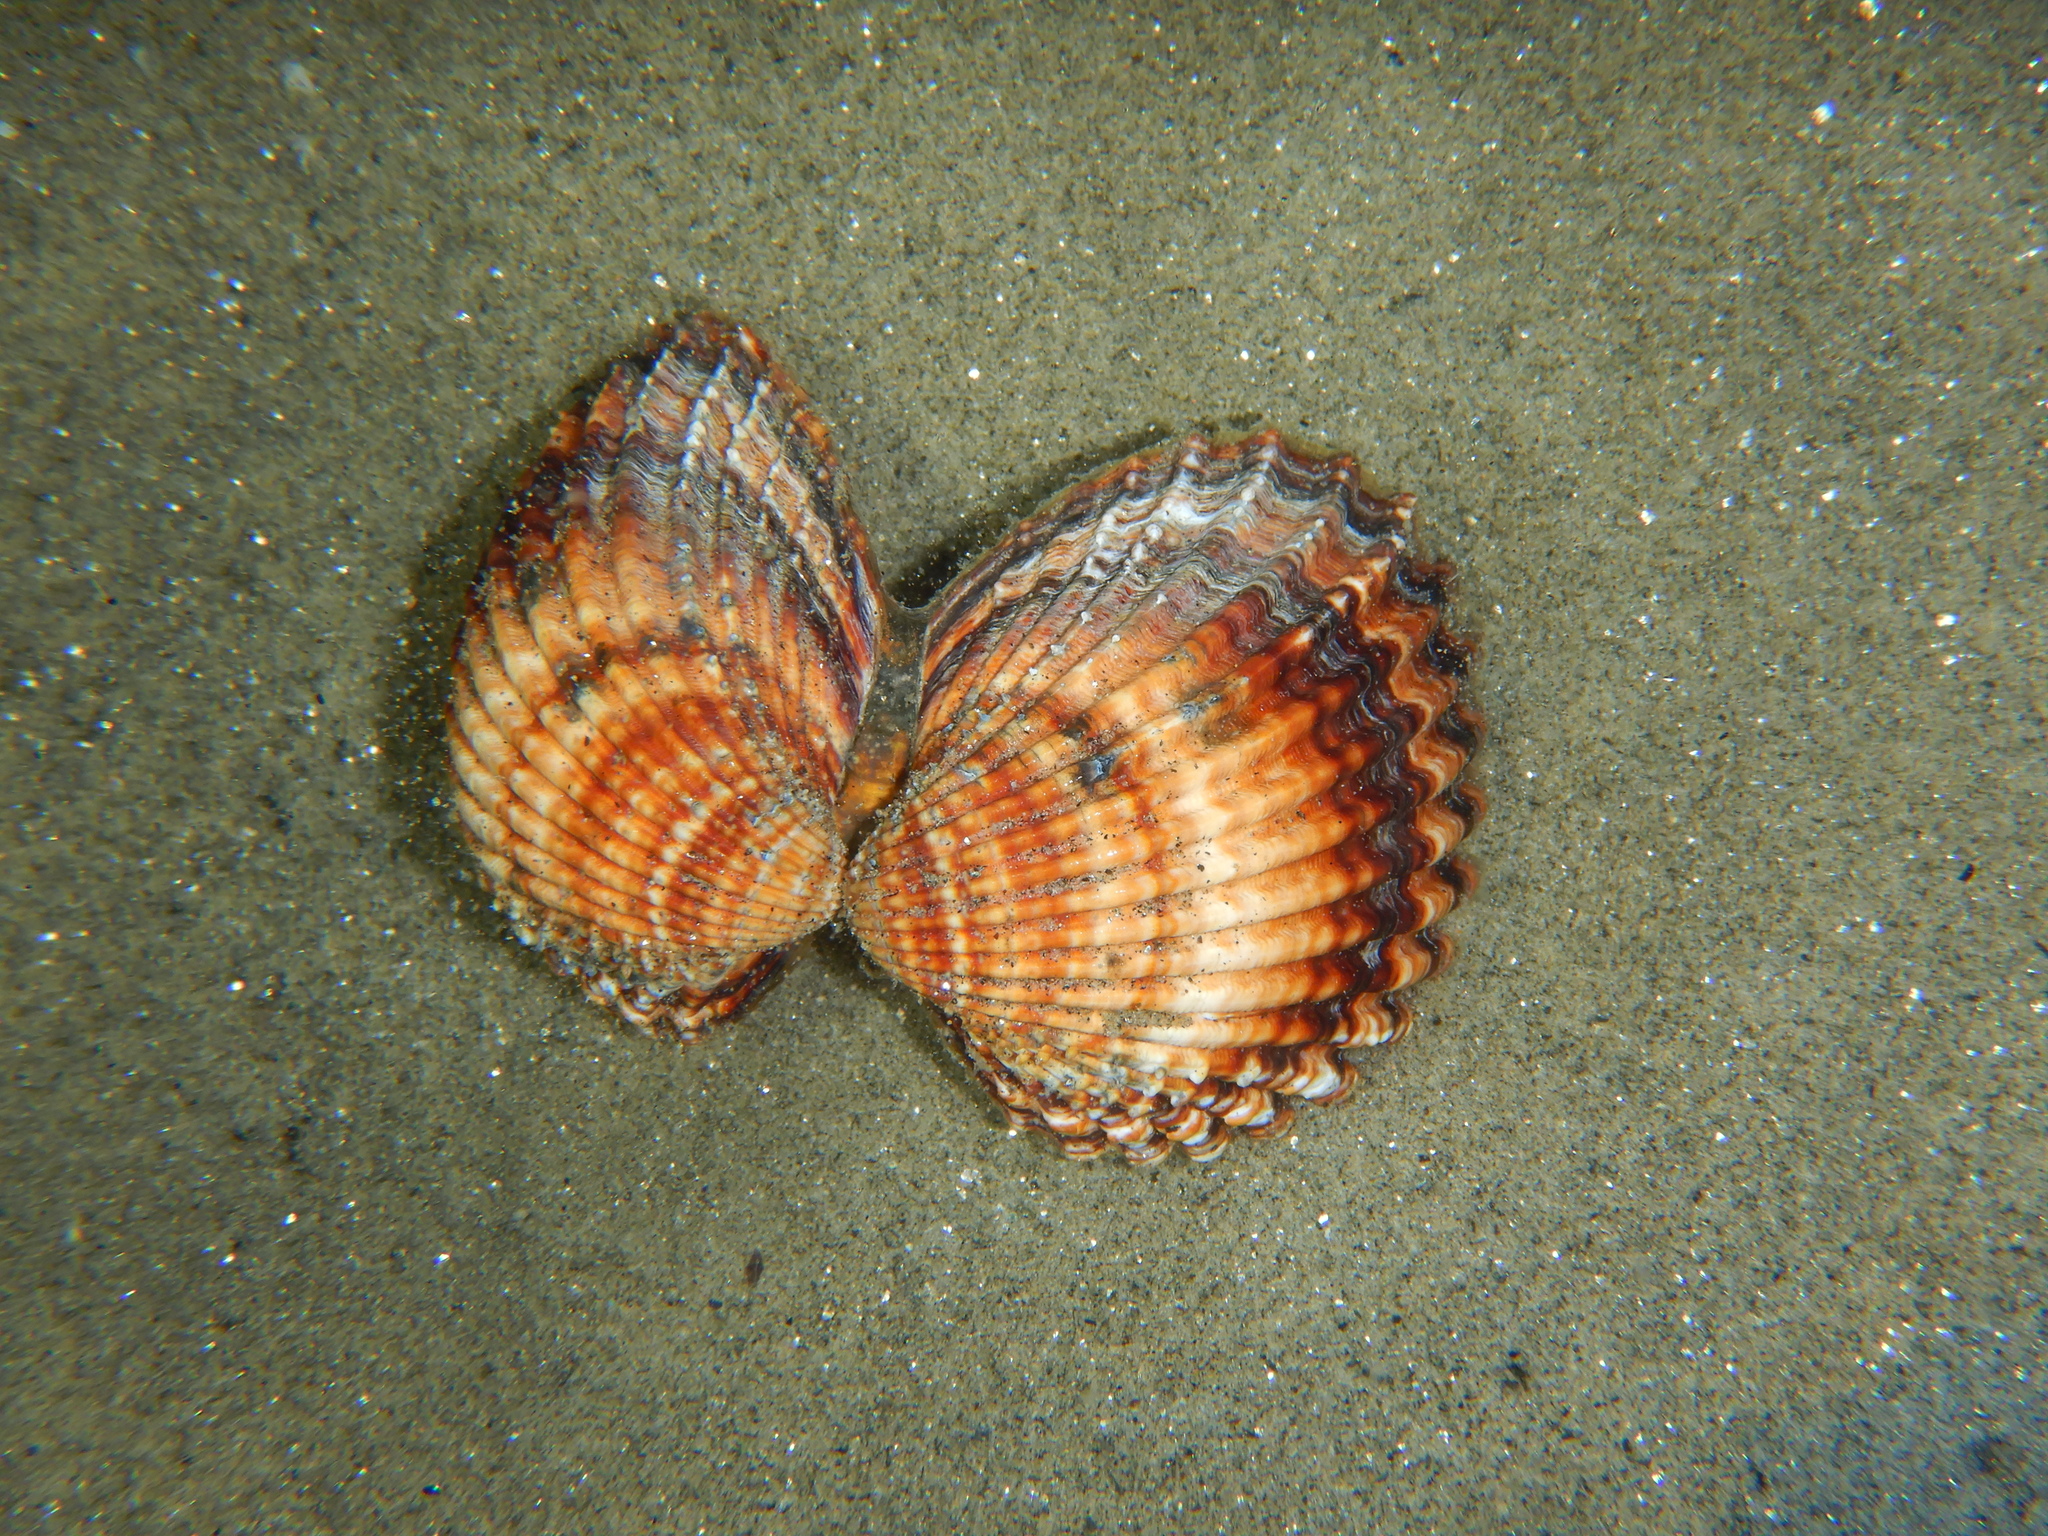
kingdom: Animalia
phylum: Mollusca
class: Bivalvia
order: Cardiida
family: Cardiidae
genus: Acanthocardia
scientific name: Acanthocardia tuberculata
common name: Rough cockle
